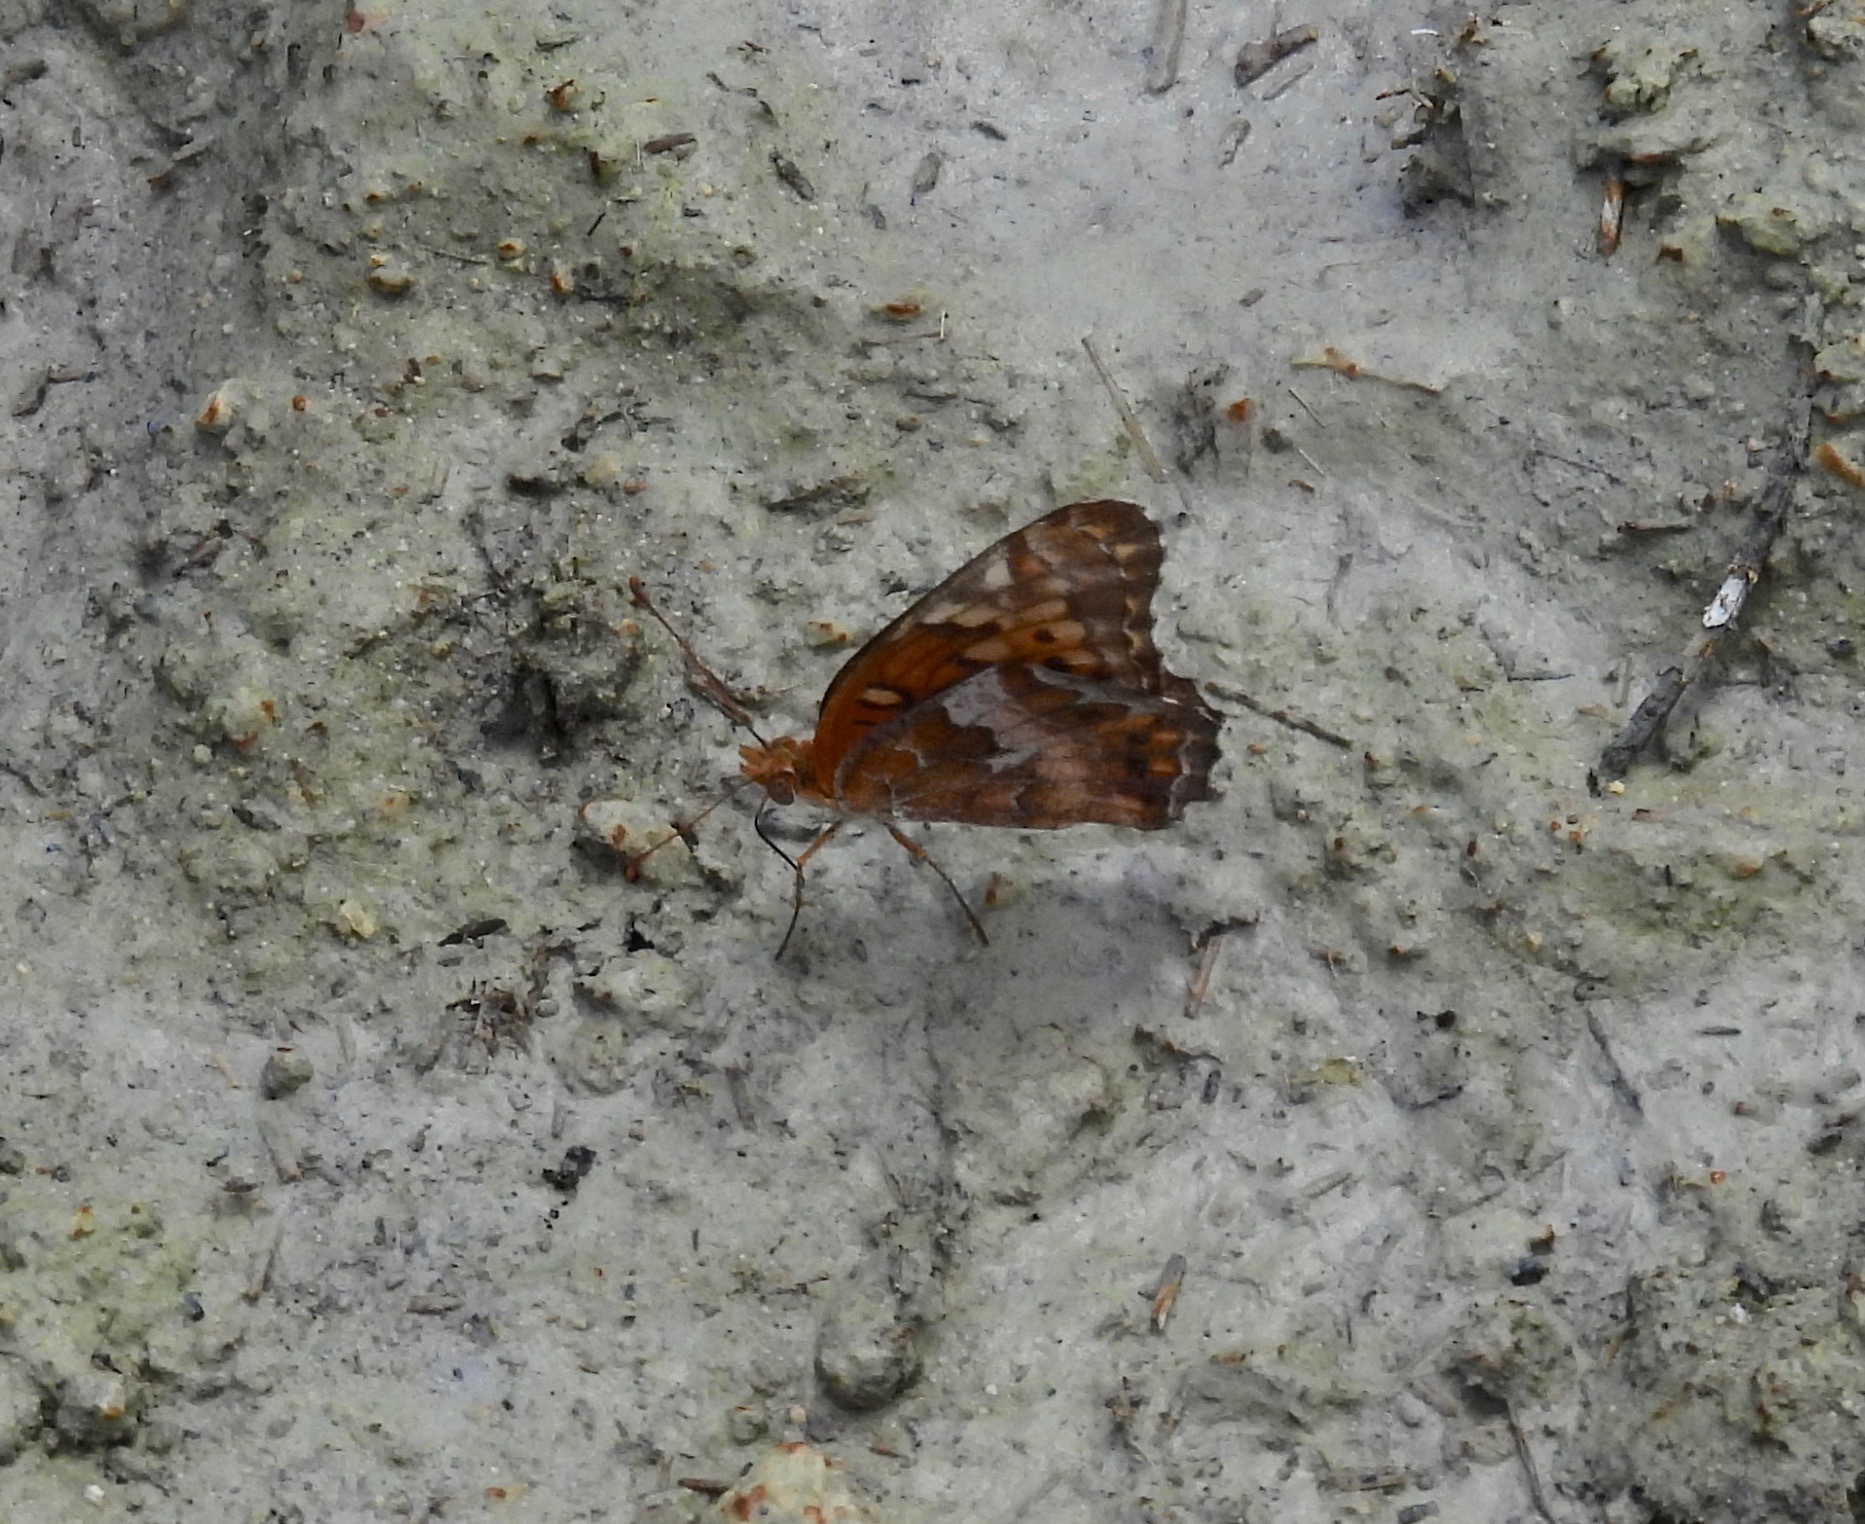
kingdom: Animalia
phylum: Arthropoda
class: Insecta
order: Lepidoptera
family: Nymphalidae
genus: Euptoieta
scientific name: Euptoieta claudia
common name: Variegated fritillary
